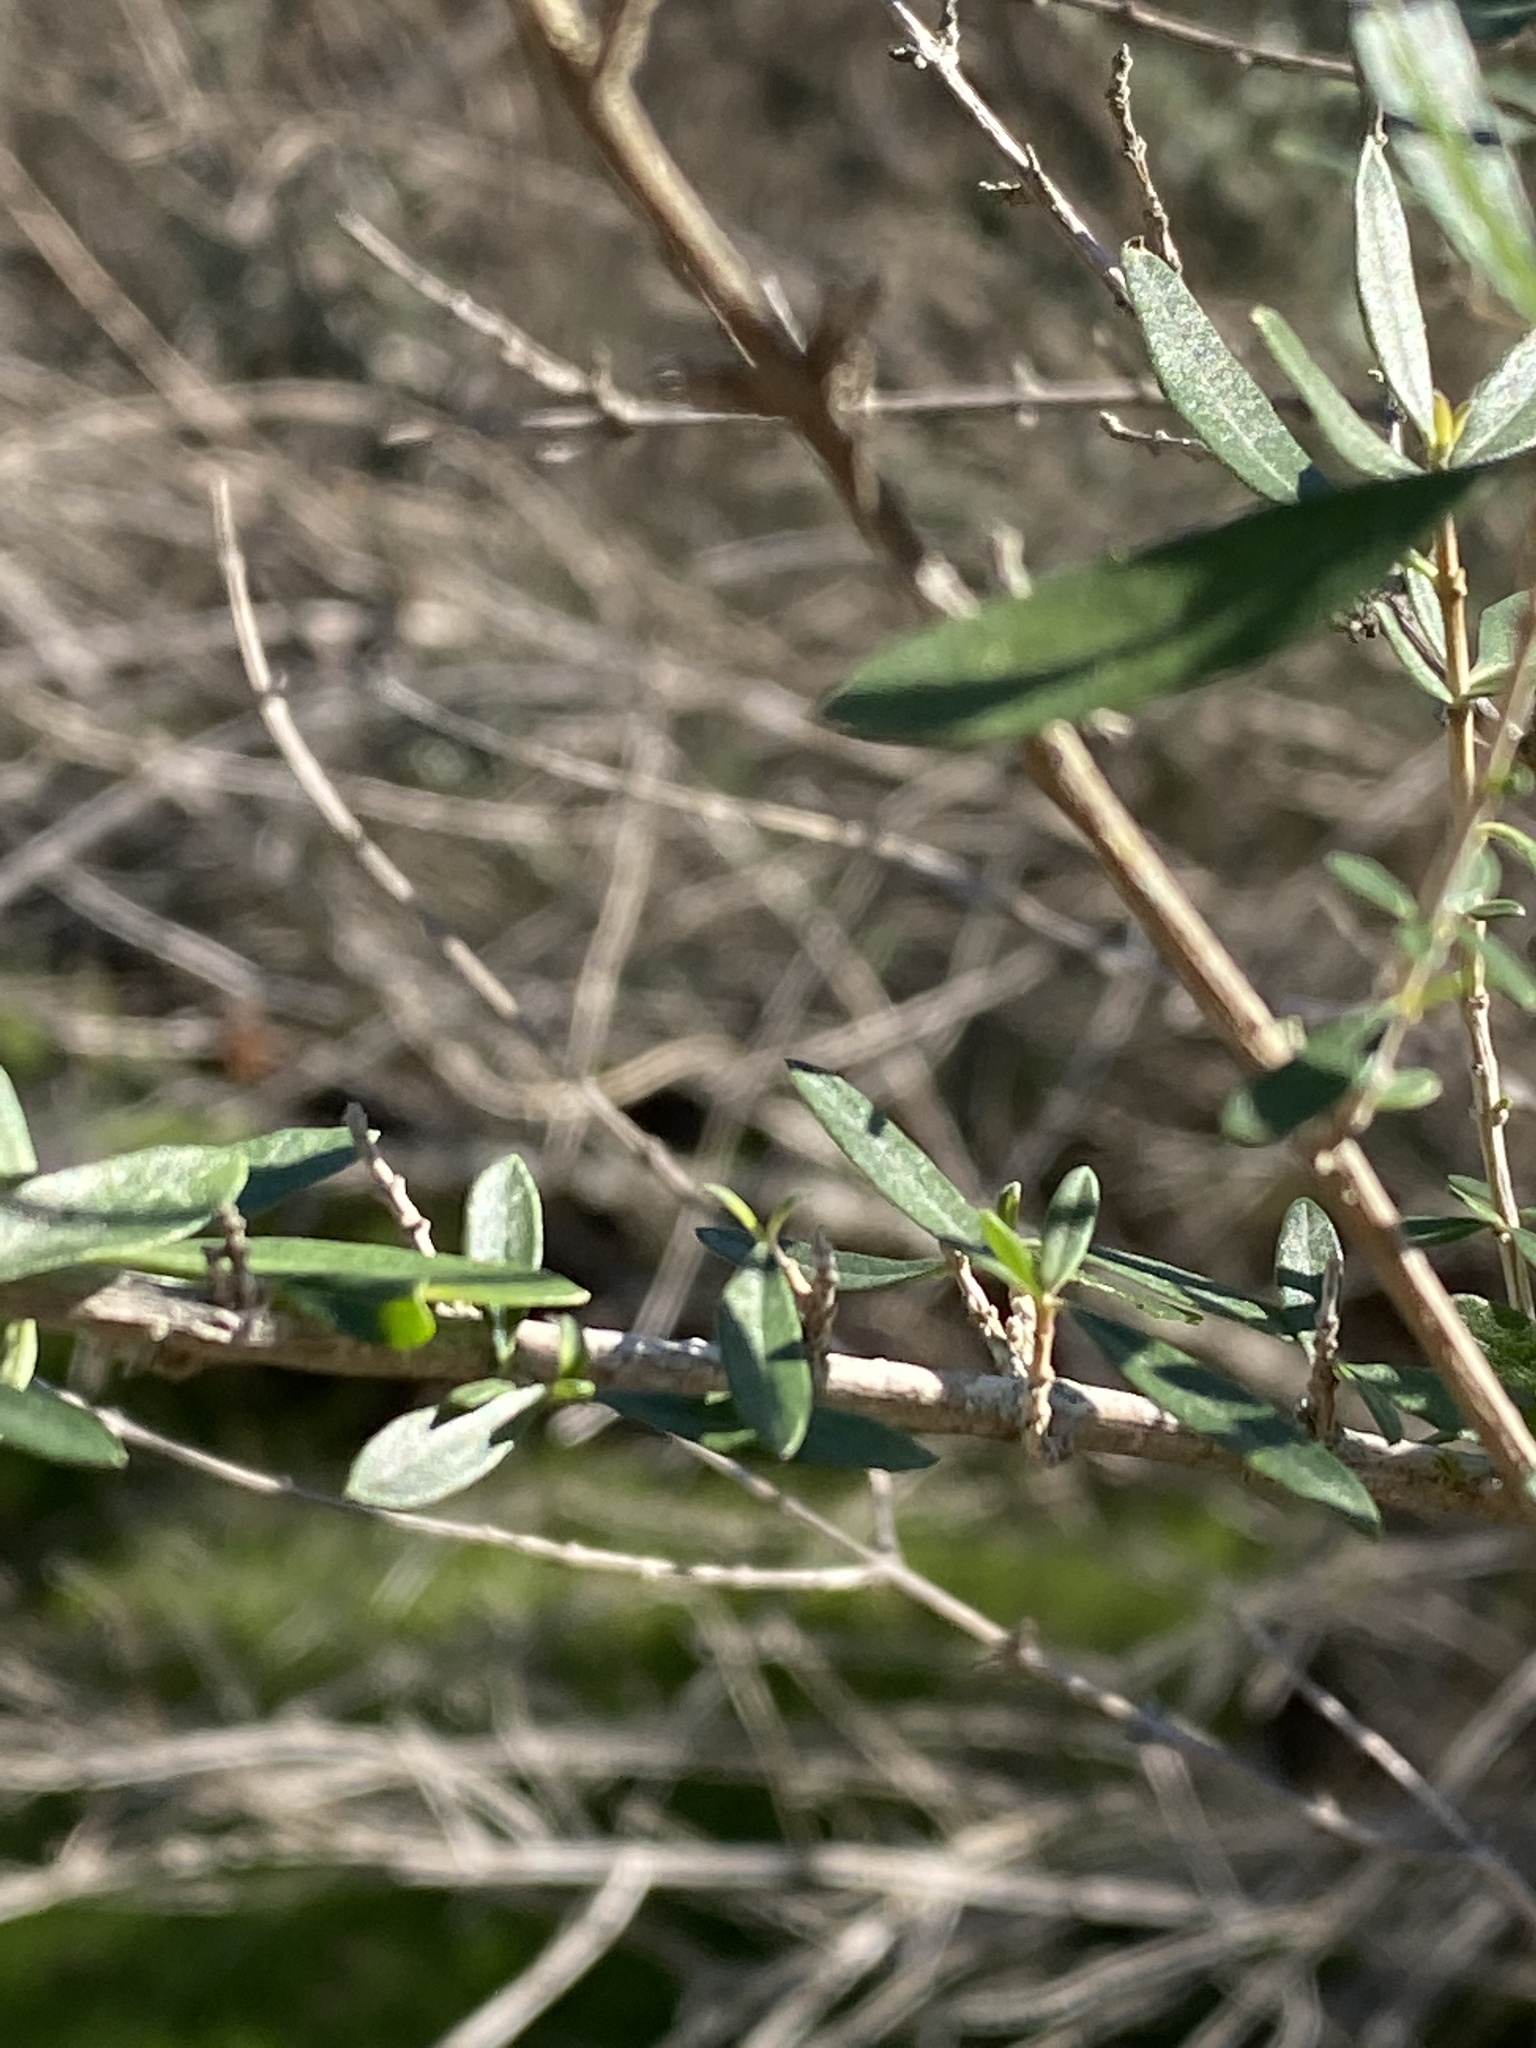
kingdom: Plantae
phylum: Tracheophyta
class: Magnoliopsida
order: Lamiales
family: Verbenaceae
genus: Aloysia
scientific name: Aloysia gratissima
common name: Common bee-brush
